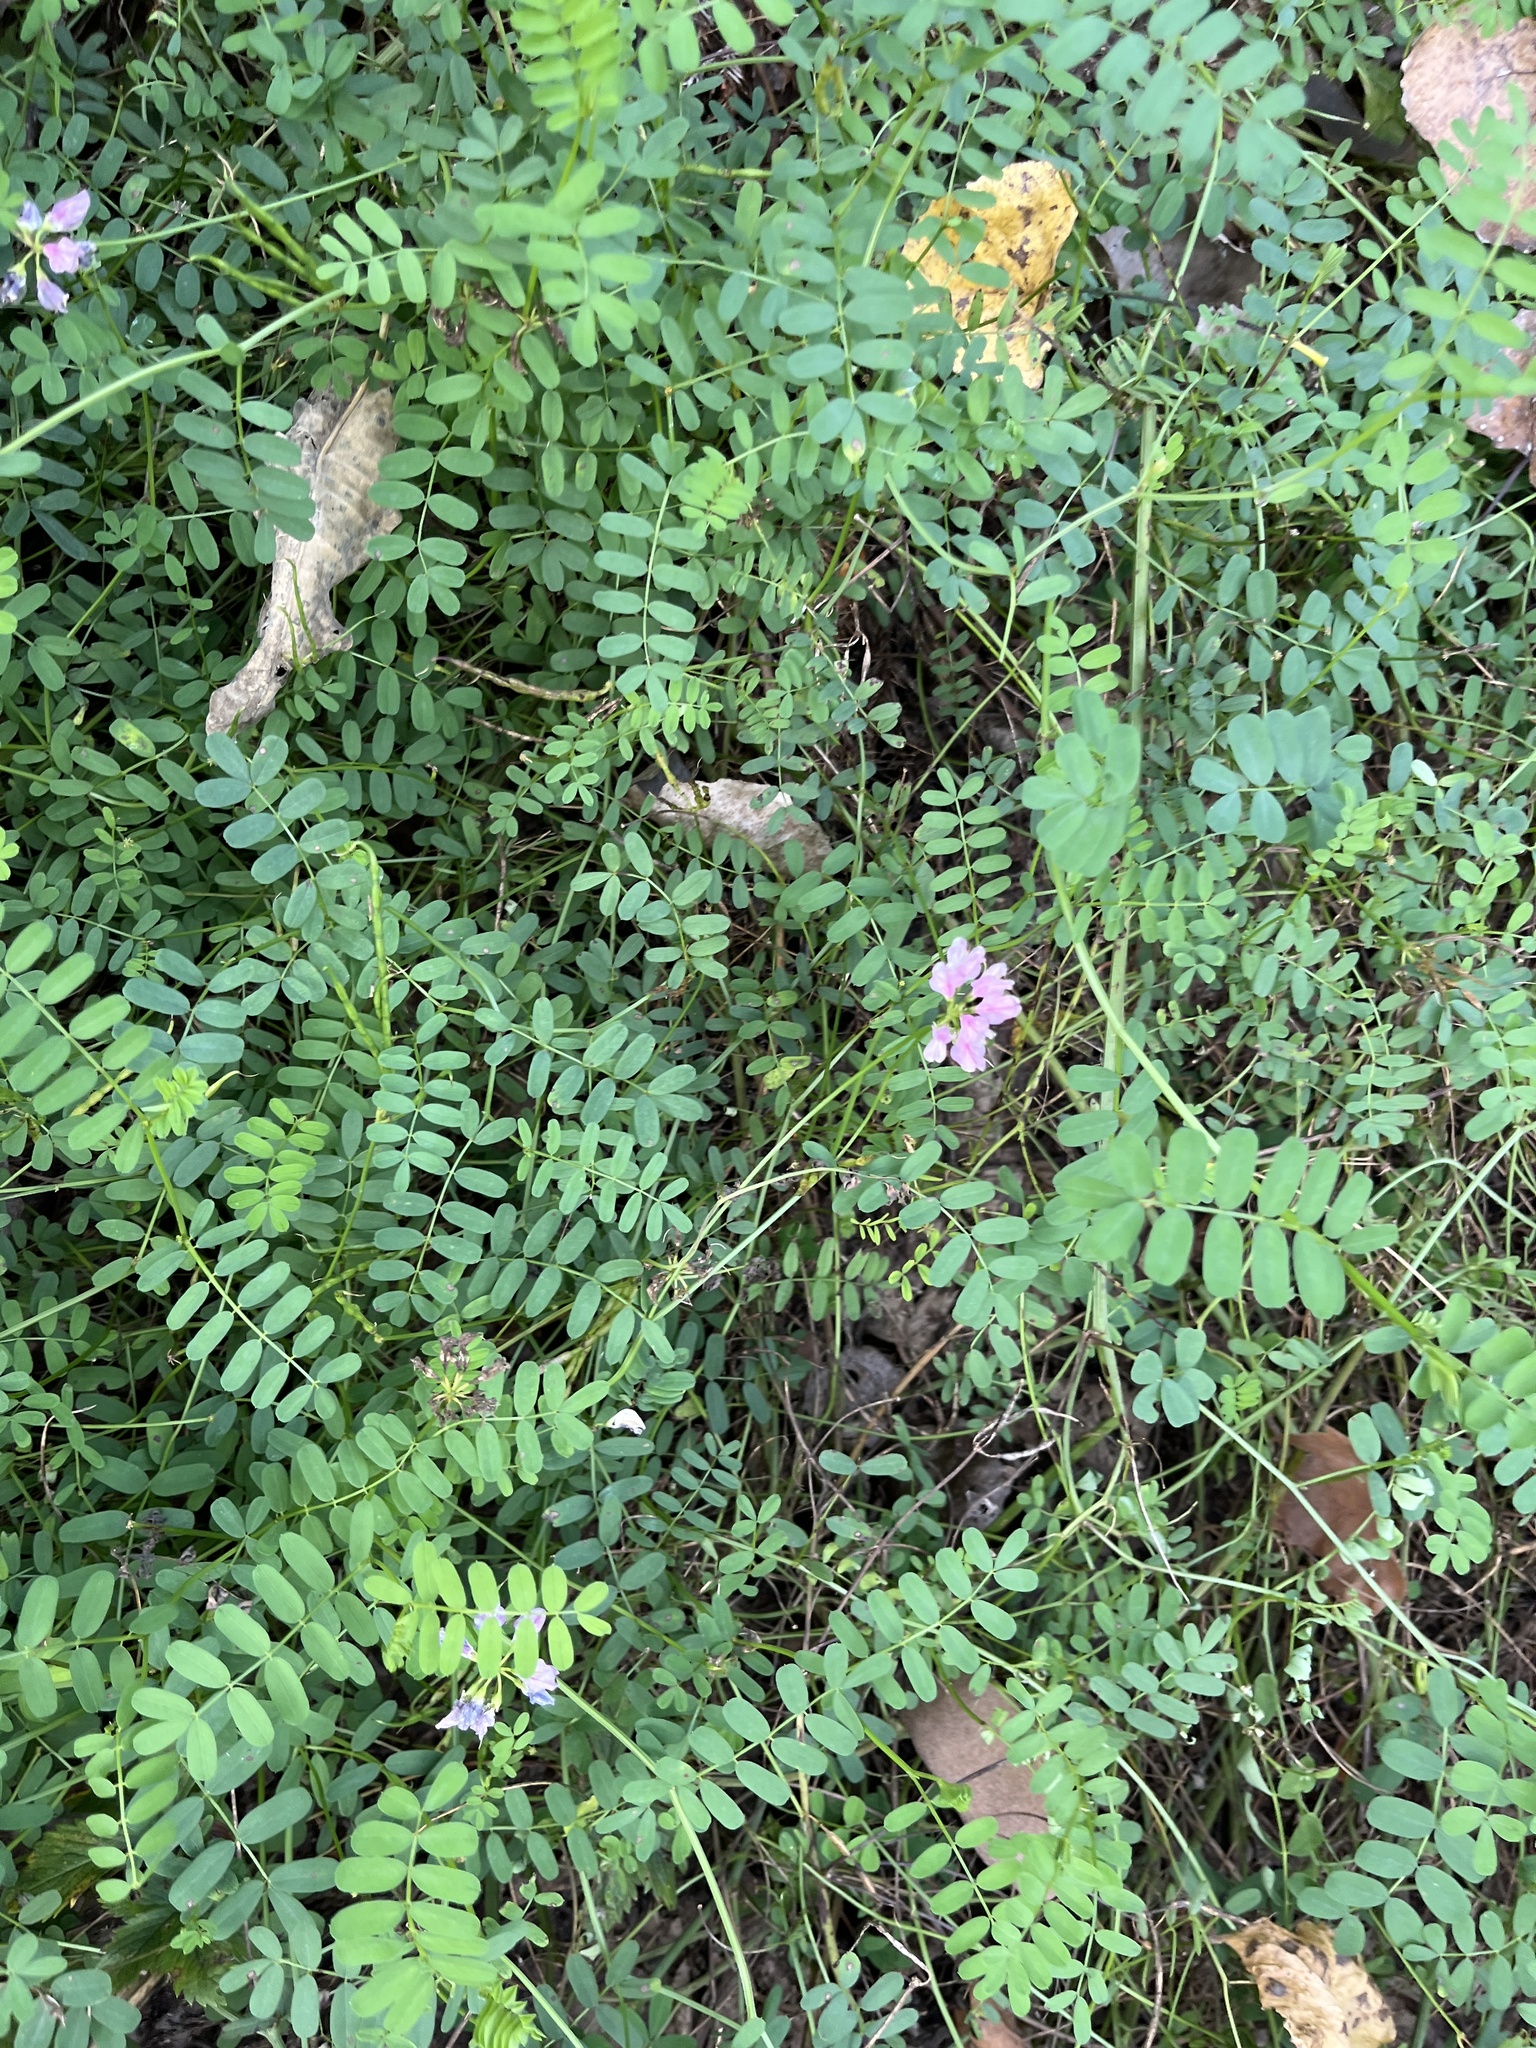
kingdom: Plantae
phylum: Tracheophyta
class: Magnoliopsida
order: Fabales
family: Fabaceae
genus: Coronilla
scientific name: Coronilla varia
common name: Crownvetch
